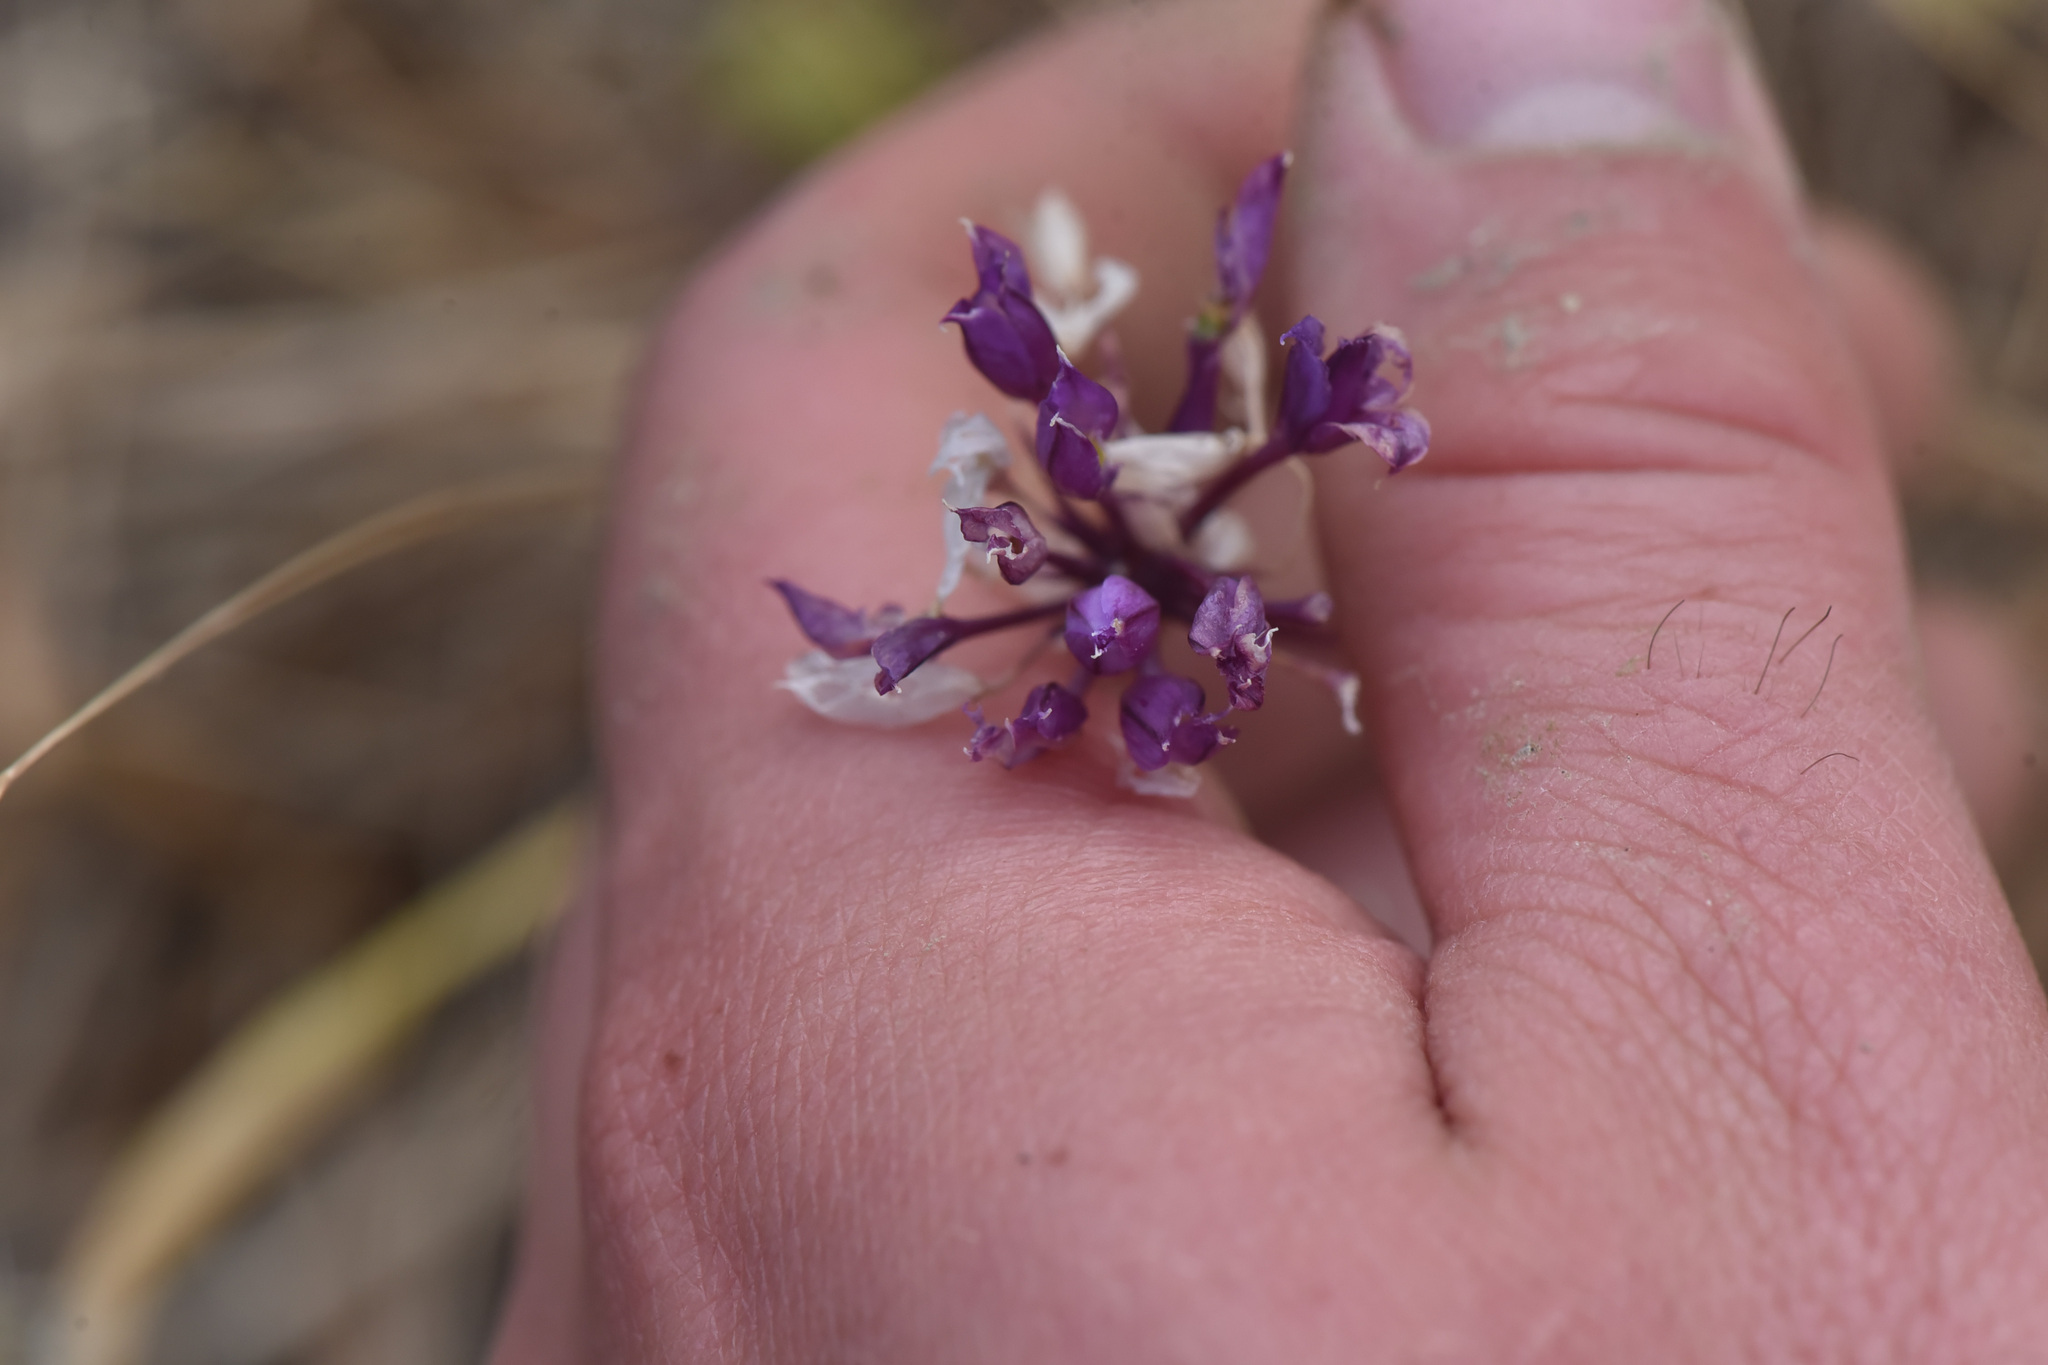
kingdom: Plantae
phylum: Tracheophyta
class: Liliopsida
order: Asparagales
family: Amaryllidaceae
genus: Allium
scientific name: Allium acuminatum
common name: Hooker's onion
